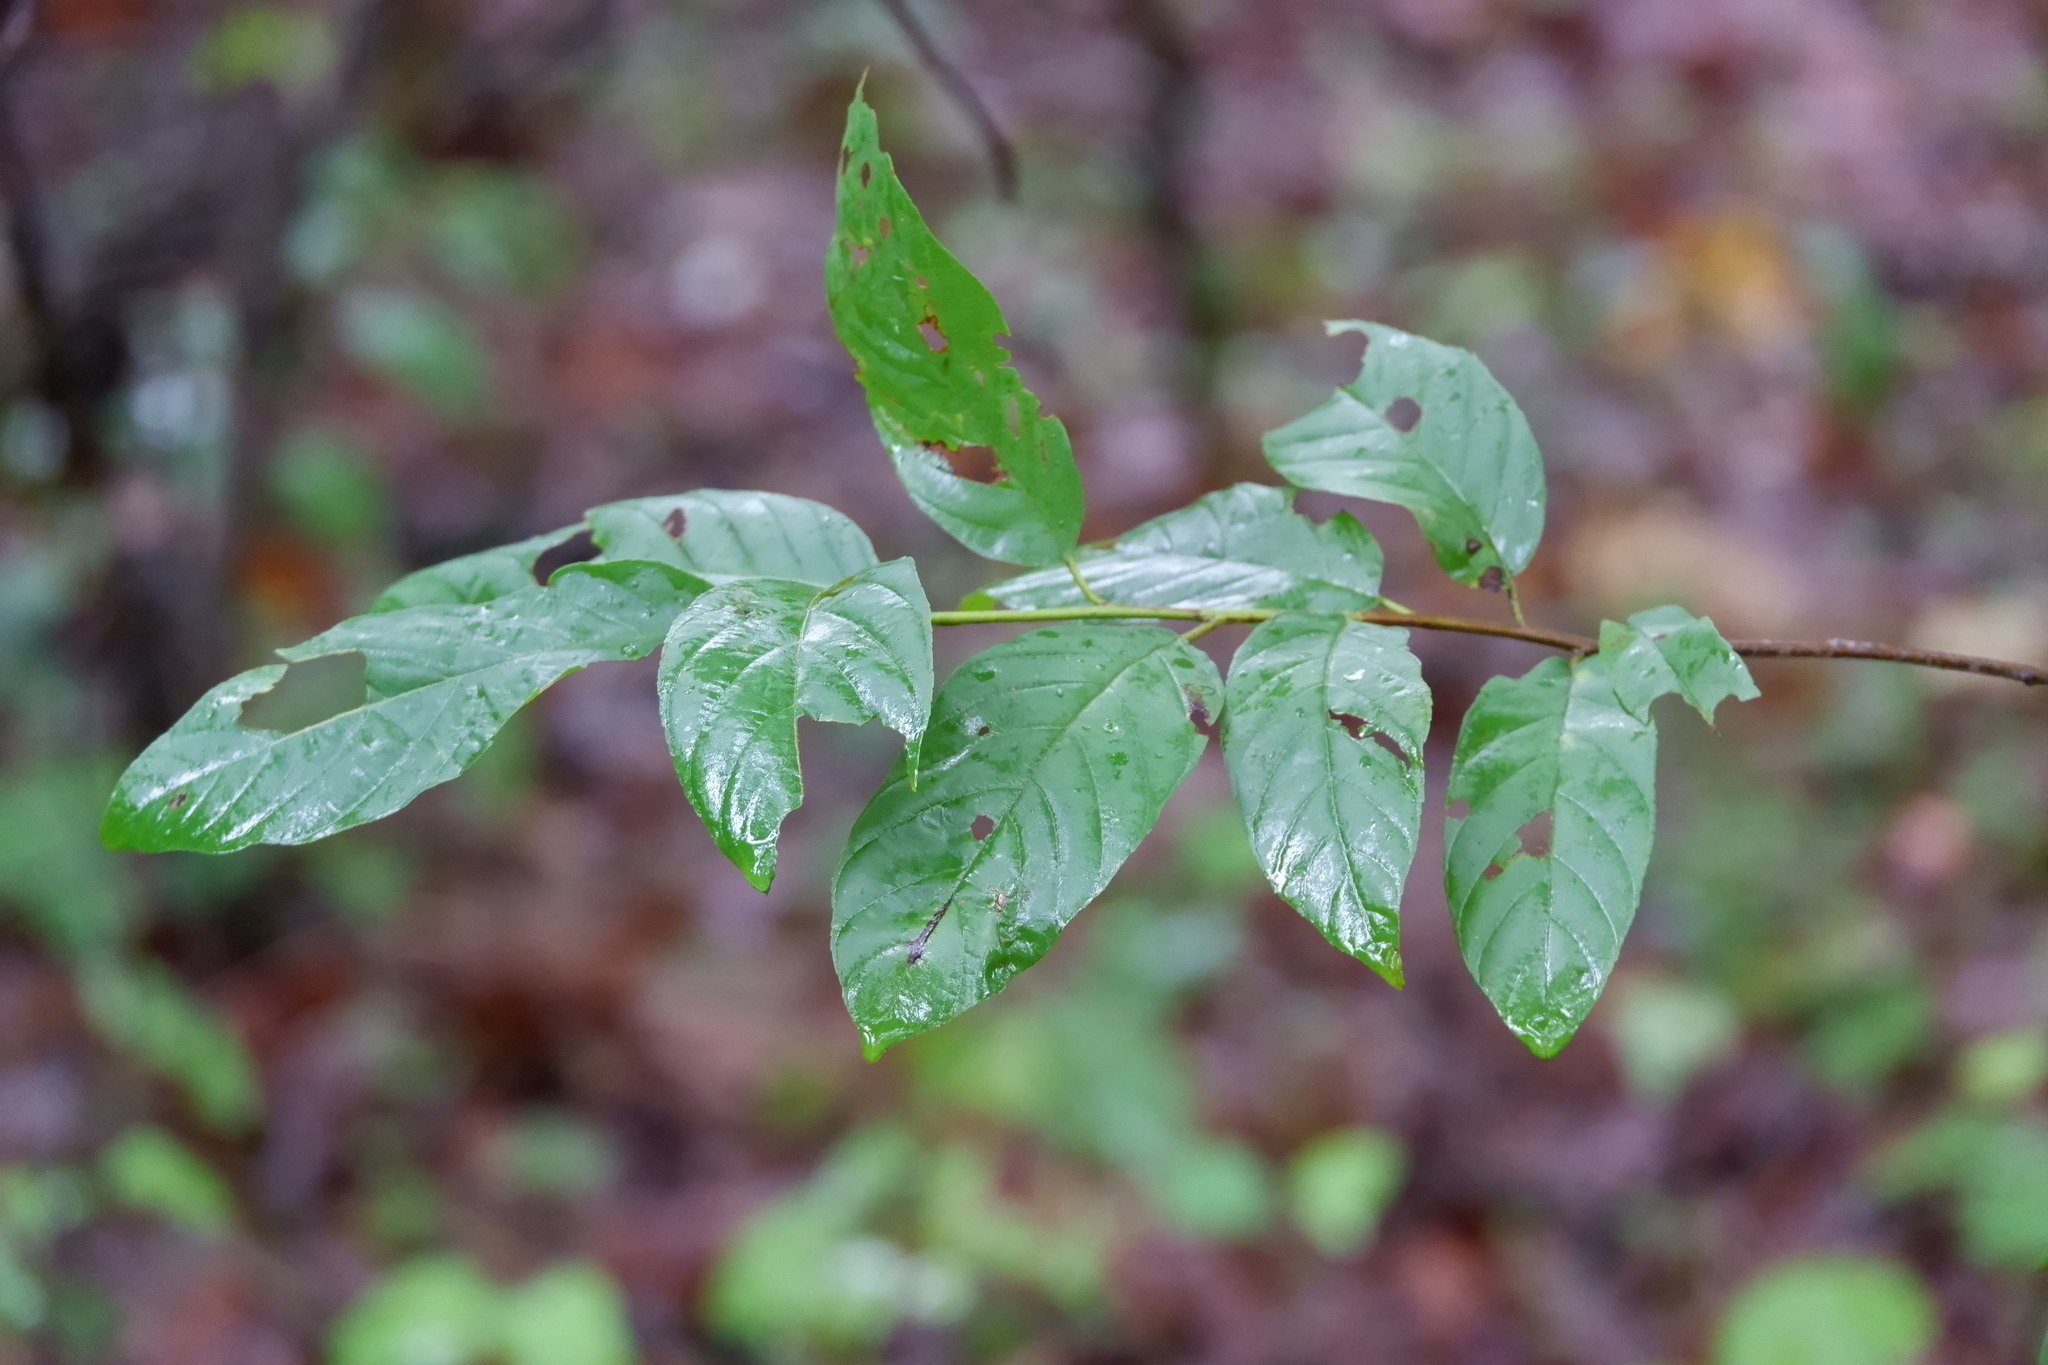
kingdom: Plantae
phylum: Tracheophyta
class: Magnoliopsida
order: Rosales
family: Rhamnaceae
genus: Frangula
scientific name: Frangula caroliniana
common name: Carolina buckthorn
